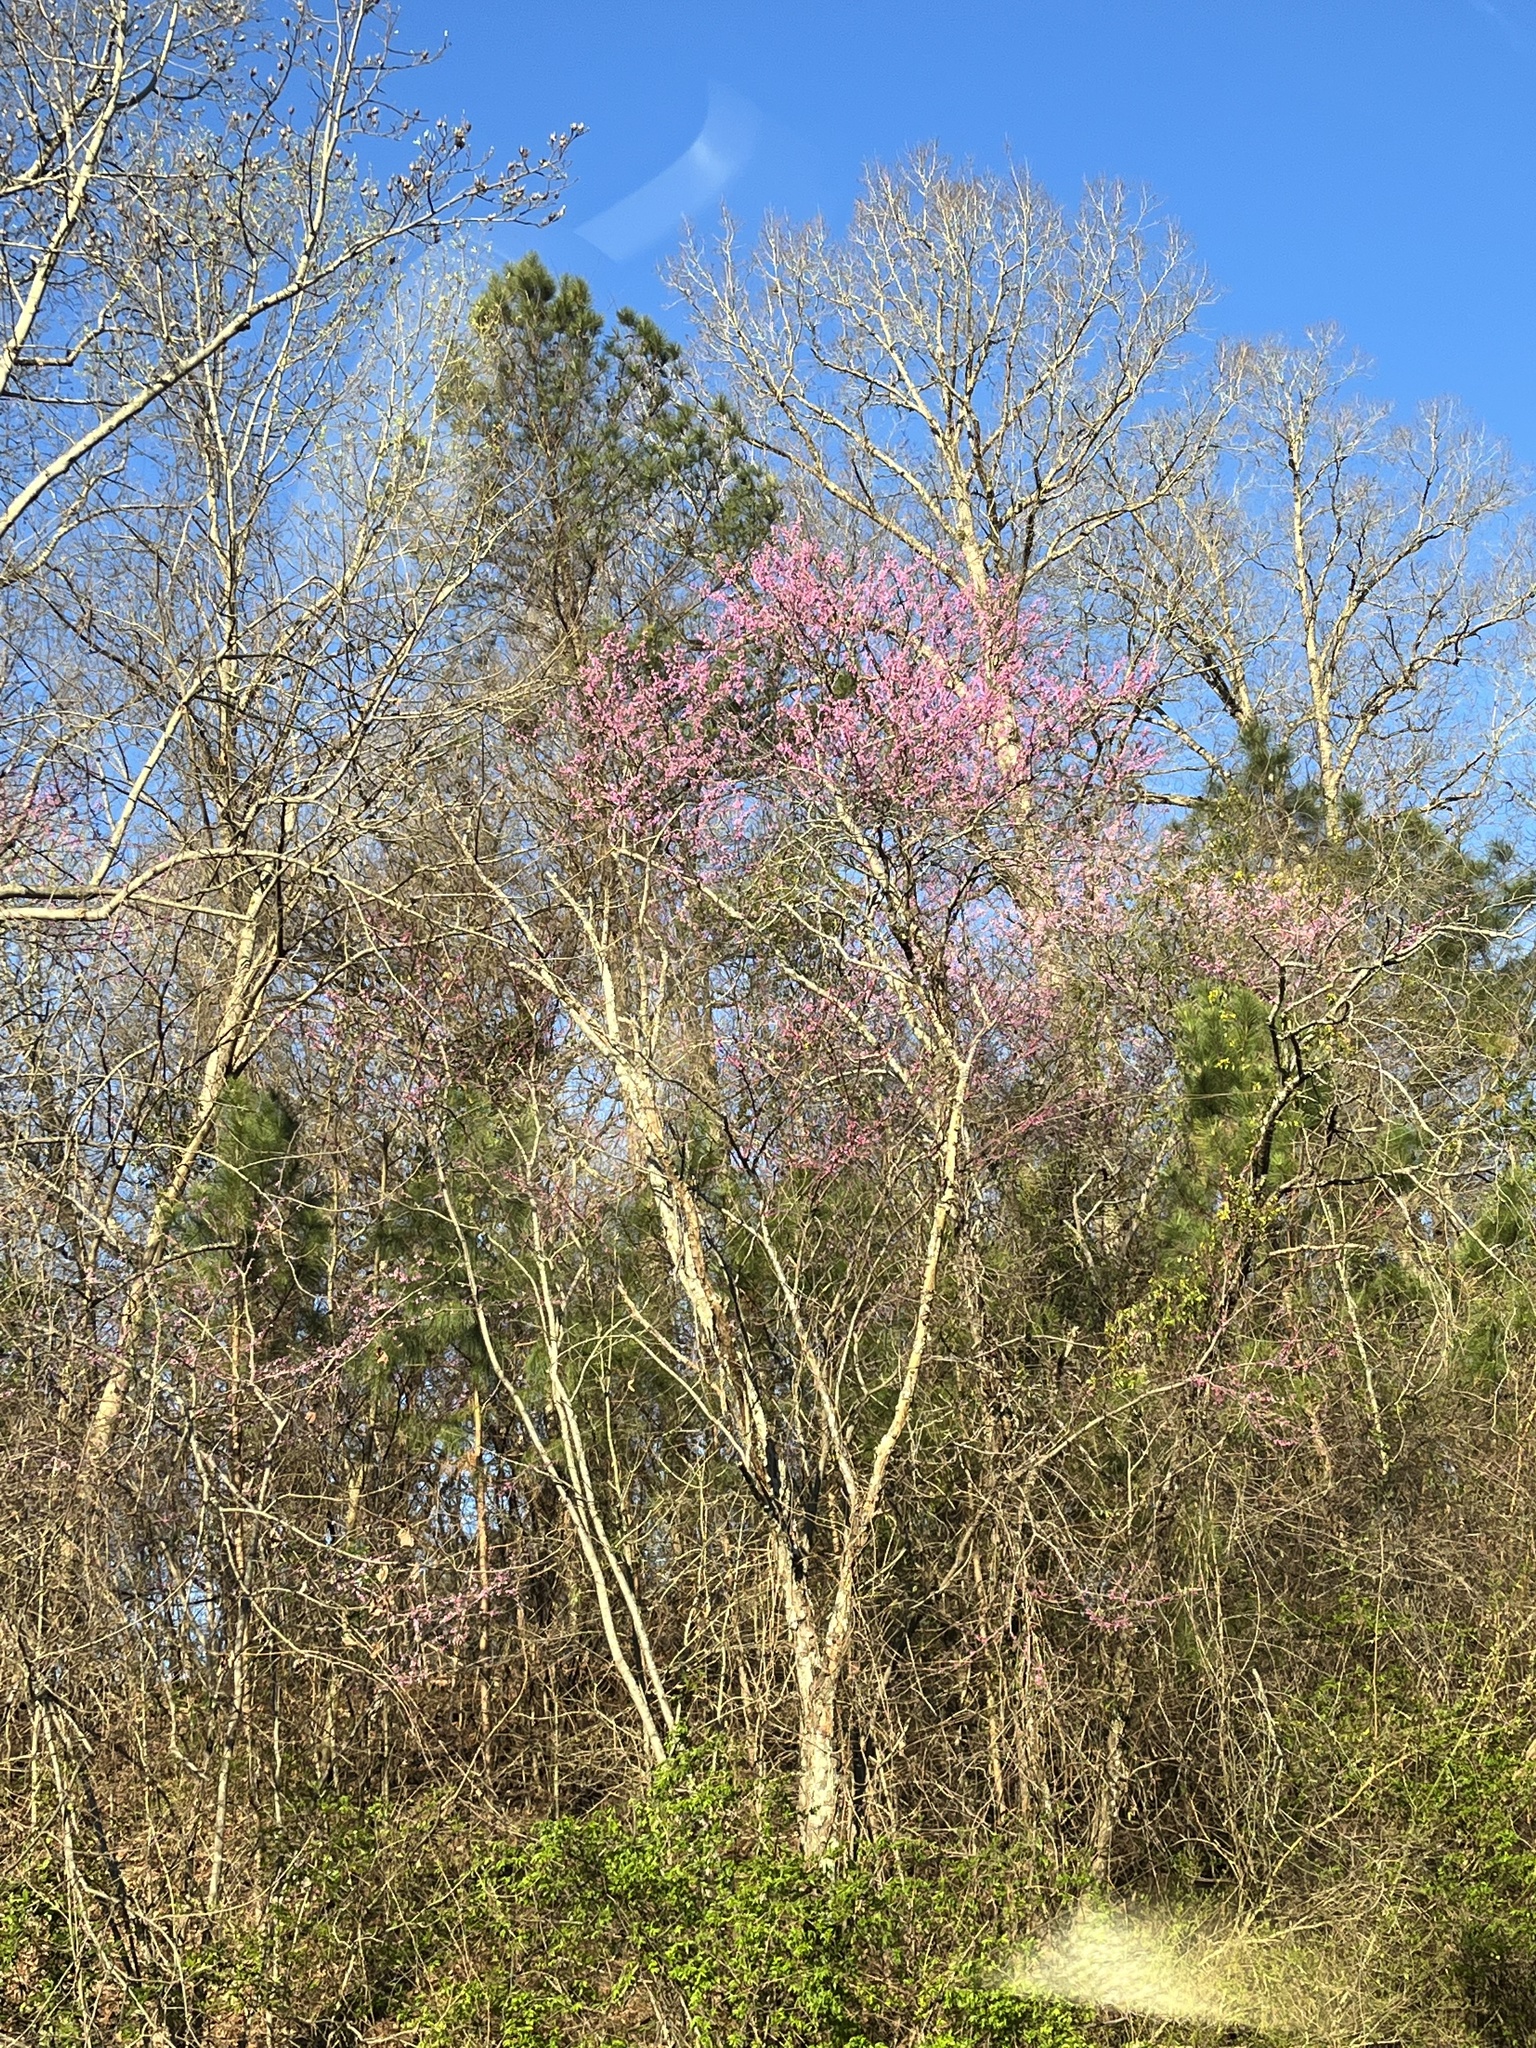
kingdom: Plantae
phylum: Tracheophyta
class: Magnoliopsida
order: Fabales
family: Fabaceae
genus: Cercis
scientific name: Cercis canadensis
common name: Eastern redbud
